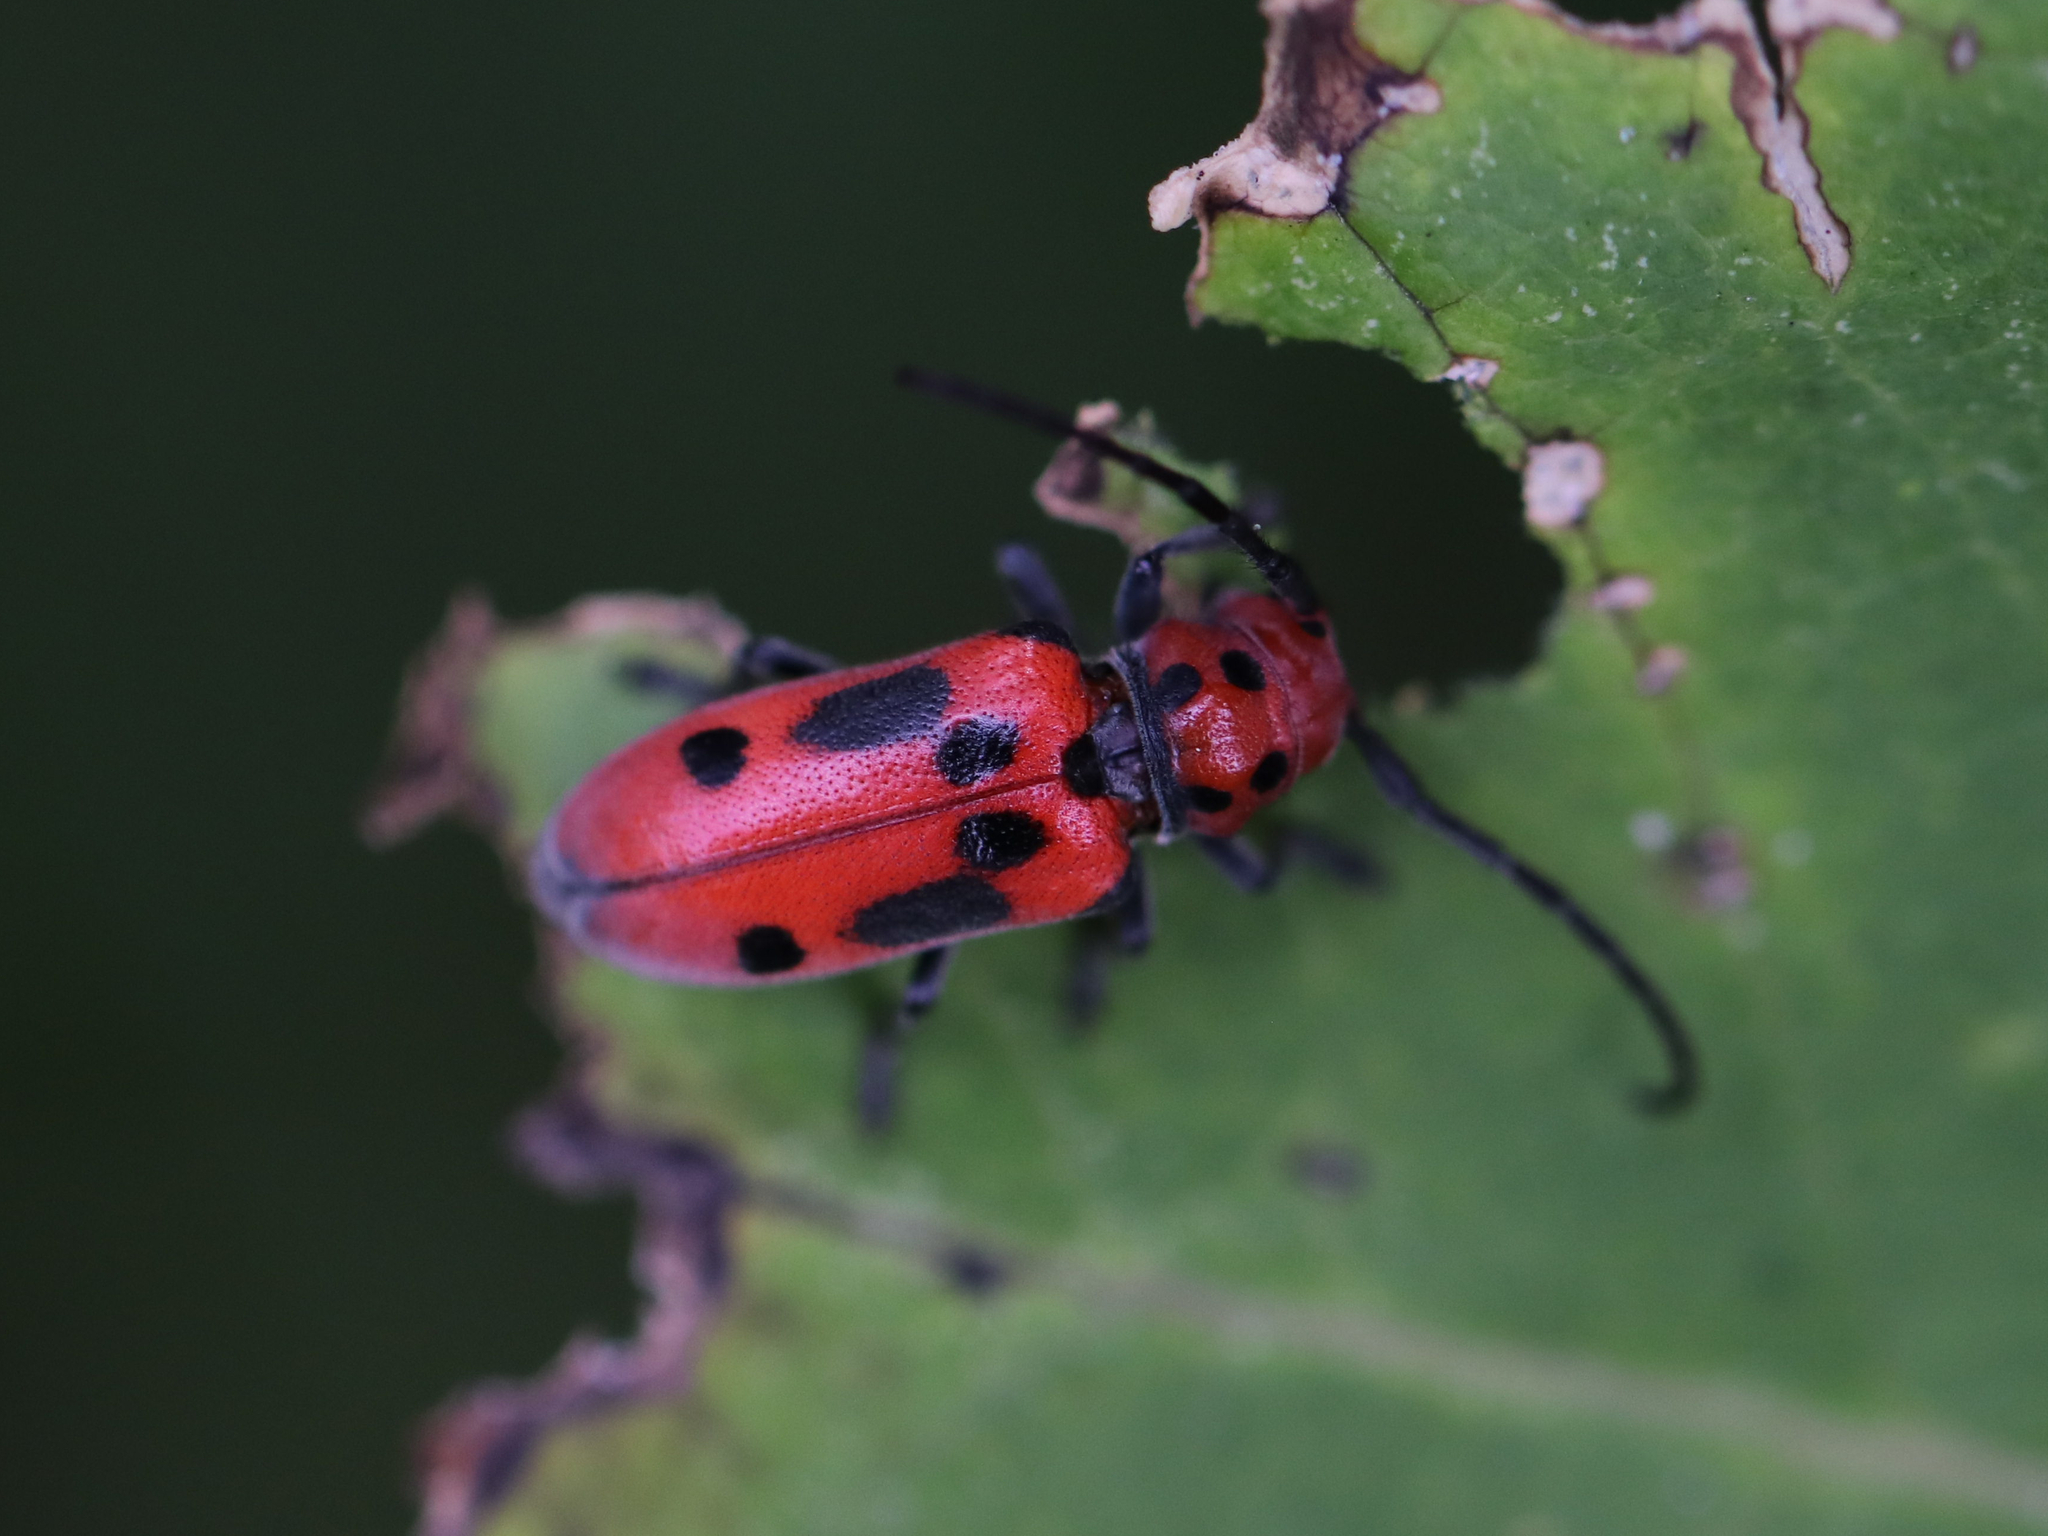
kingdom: Animalia
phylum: Arthropoda
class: Insecta
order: Coleoptera
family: Cerambycidae
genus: Tetraopes
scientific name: Tetraopes tetrophthalmus
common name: Red milkweed beetle
